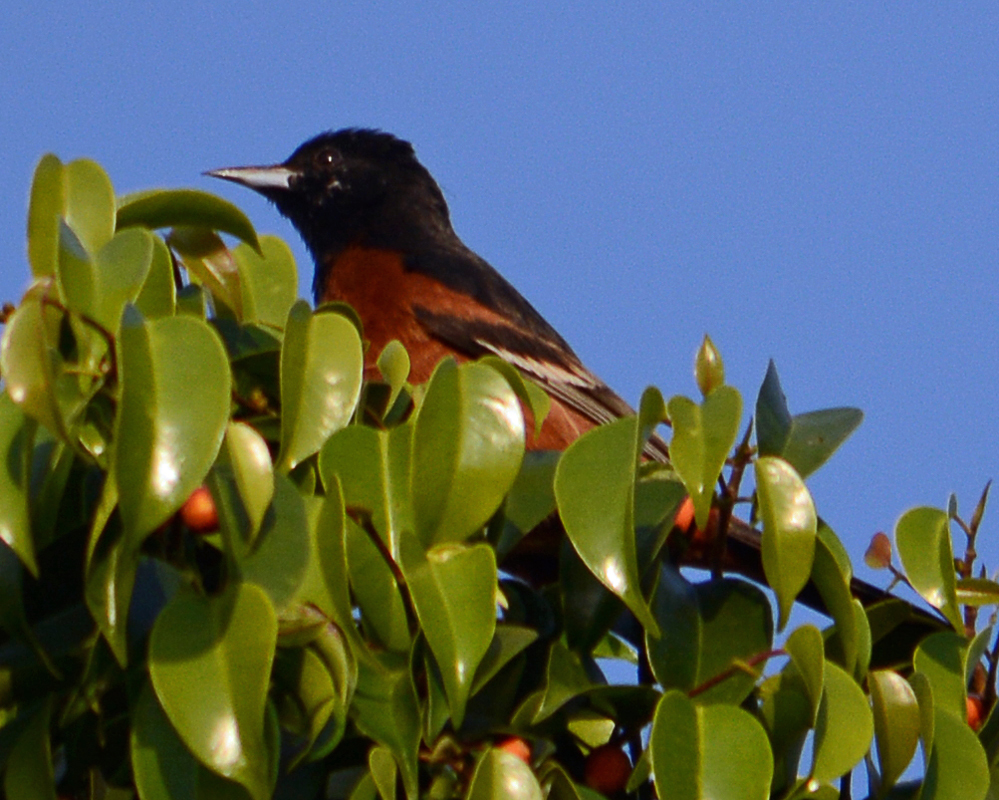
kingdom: Animalia
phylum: Chordata
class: Aves
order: Passeriformes
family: Icteridae
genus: Icterus
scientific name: Icterus spurius
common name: Orchard oriole
